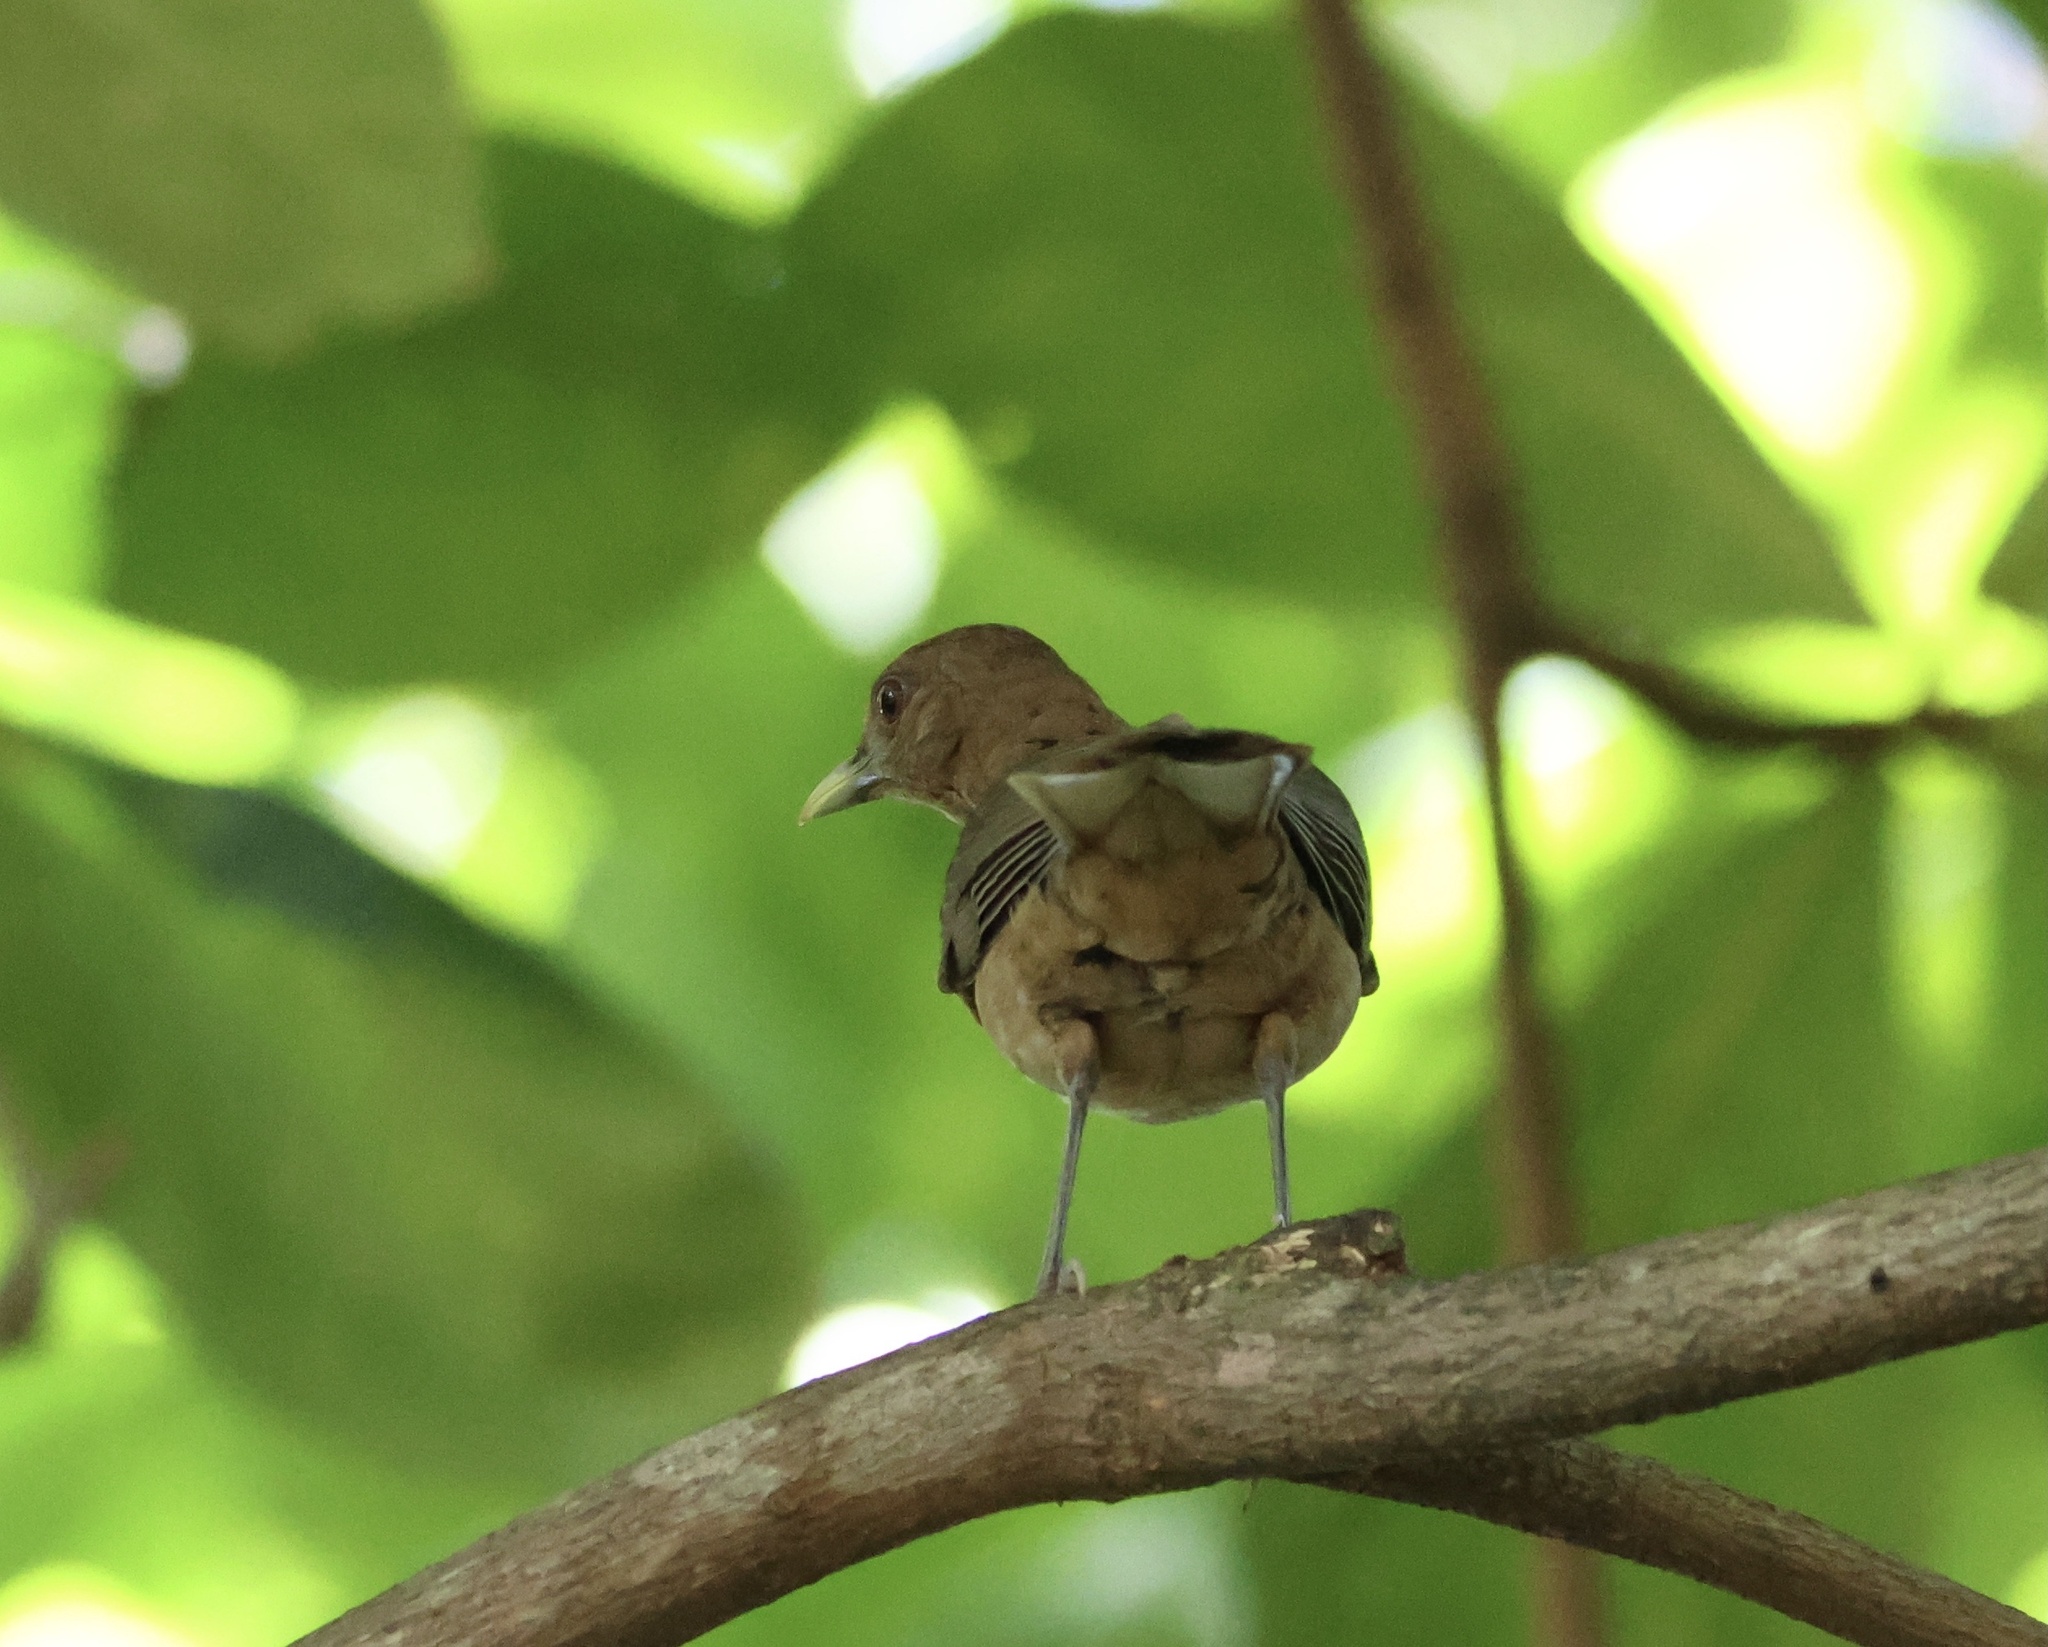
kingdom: Animalia
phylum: Chordata
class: Aves
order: Passeriformes
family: Turdidae
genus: Turdus
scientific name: Turdus grayi
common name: Clay-colored thrush
